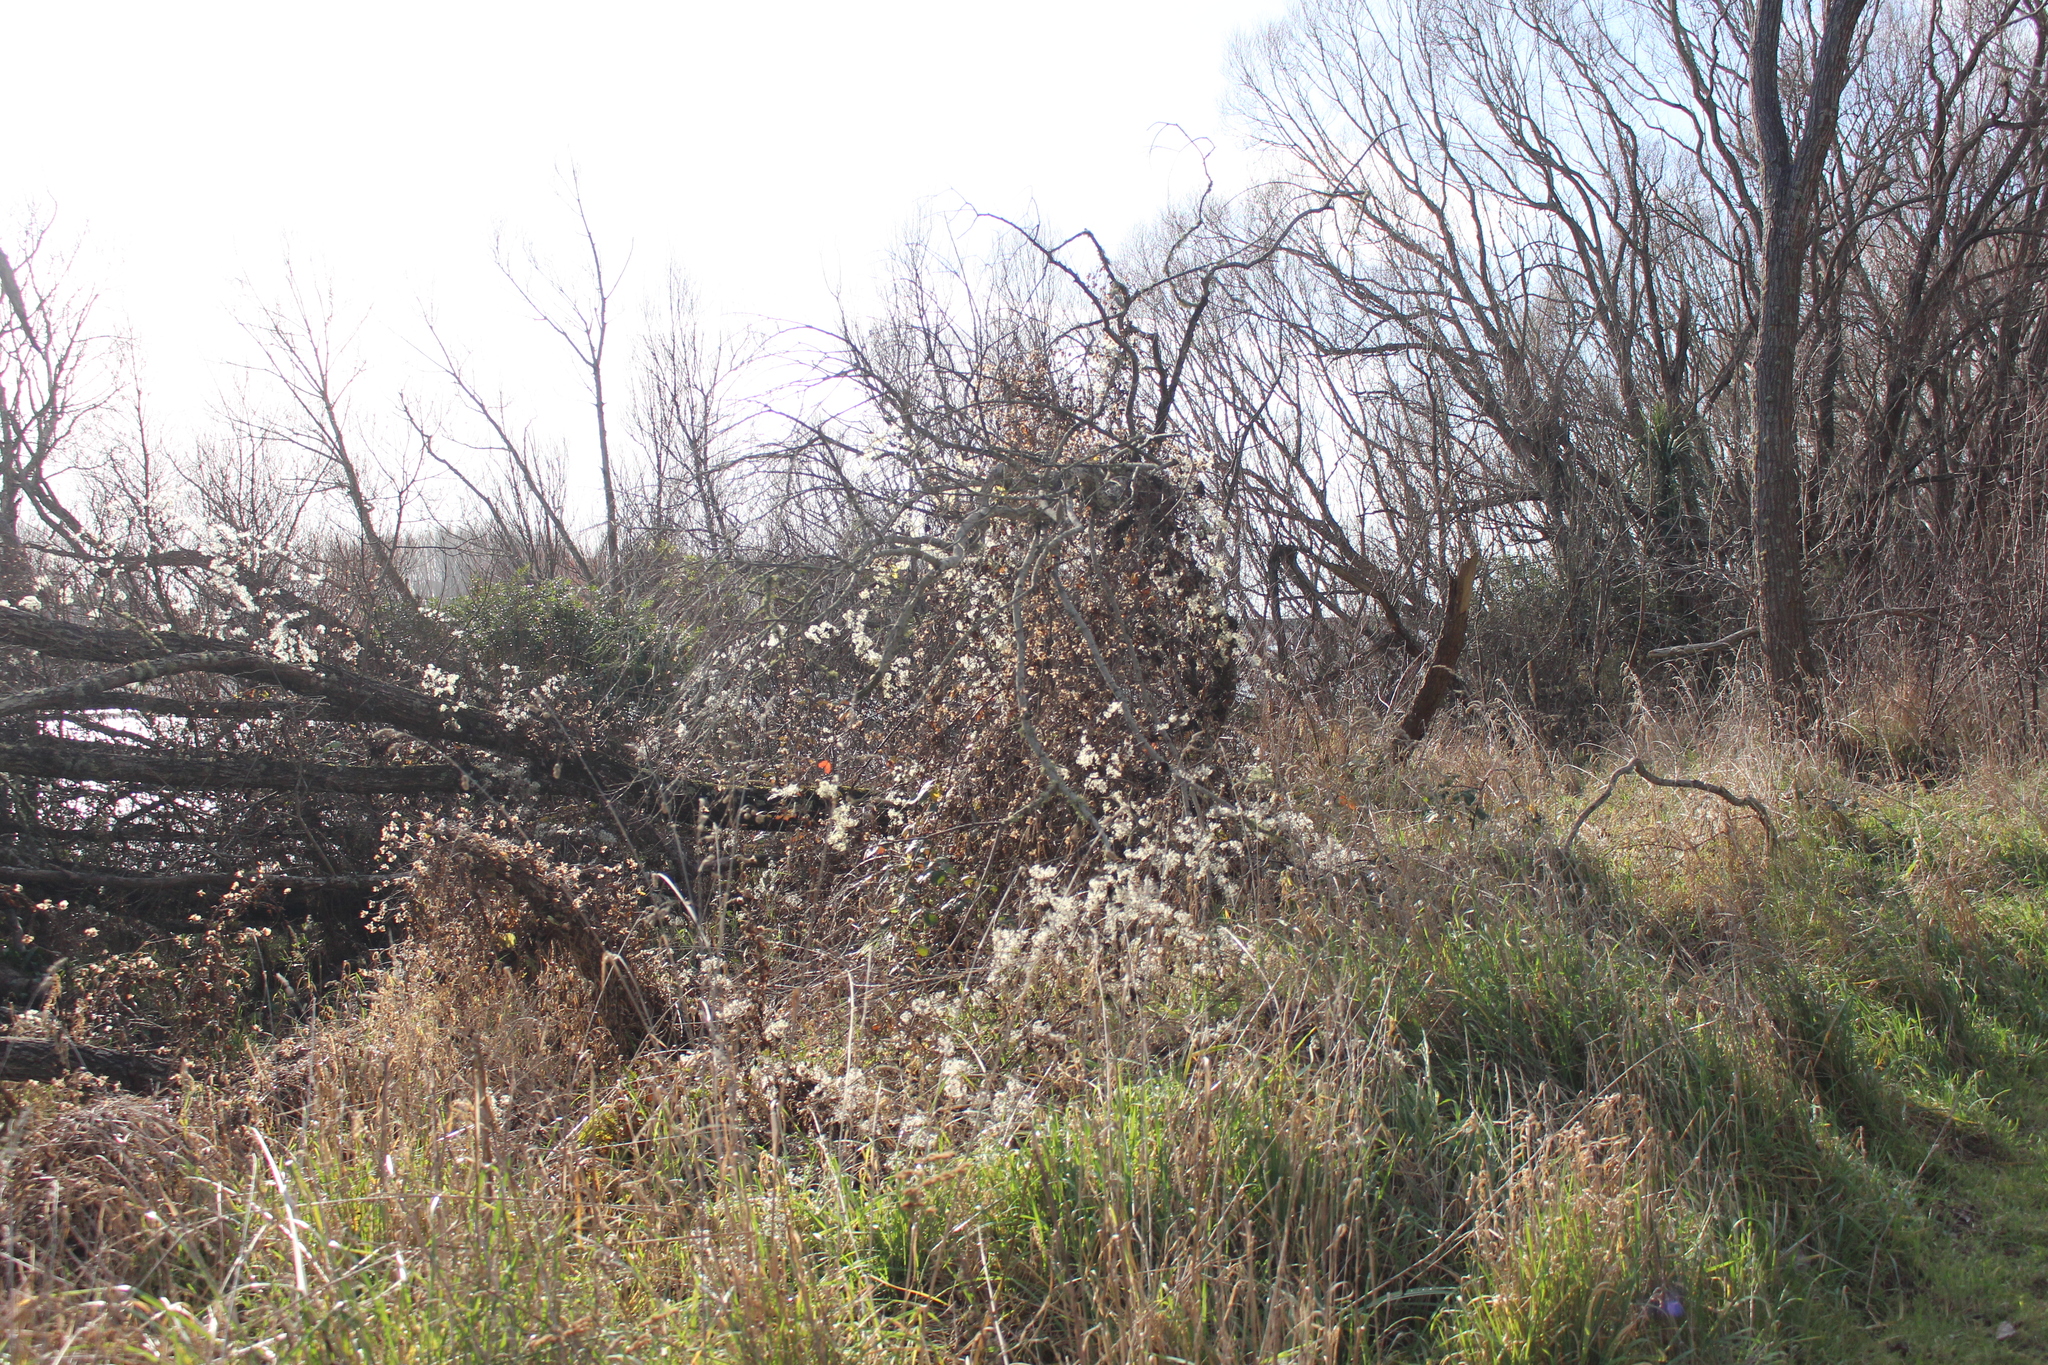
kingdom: Plantae
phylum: Tracheophyta
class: Magnoliopsida
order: Ranunculales
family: Ranunculaceae
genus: Clematis
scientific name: Clematis vitalba
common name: Evergreen clematis
